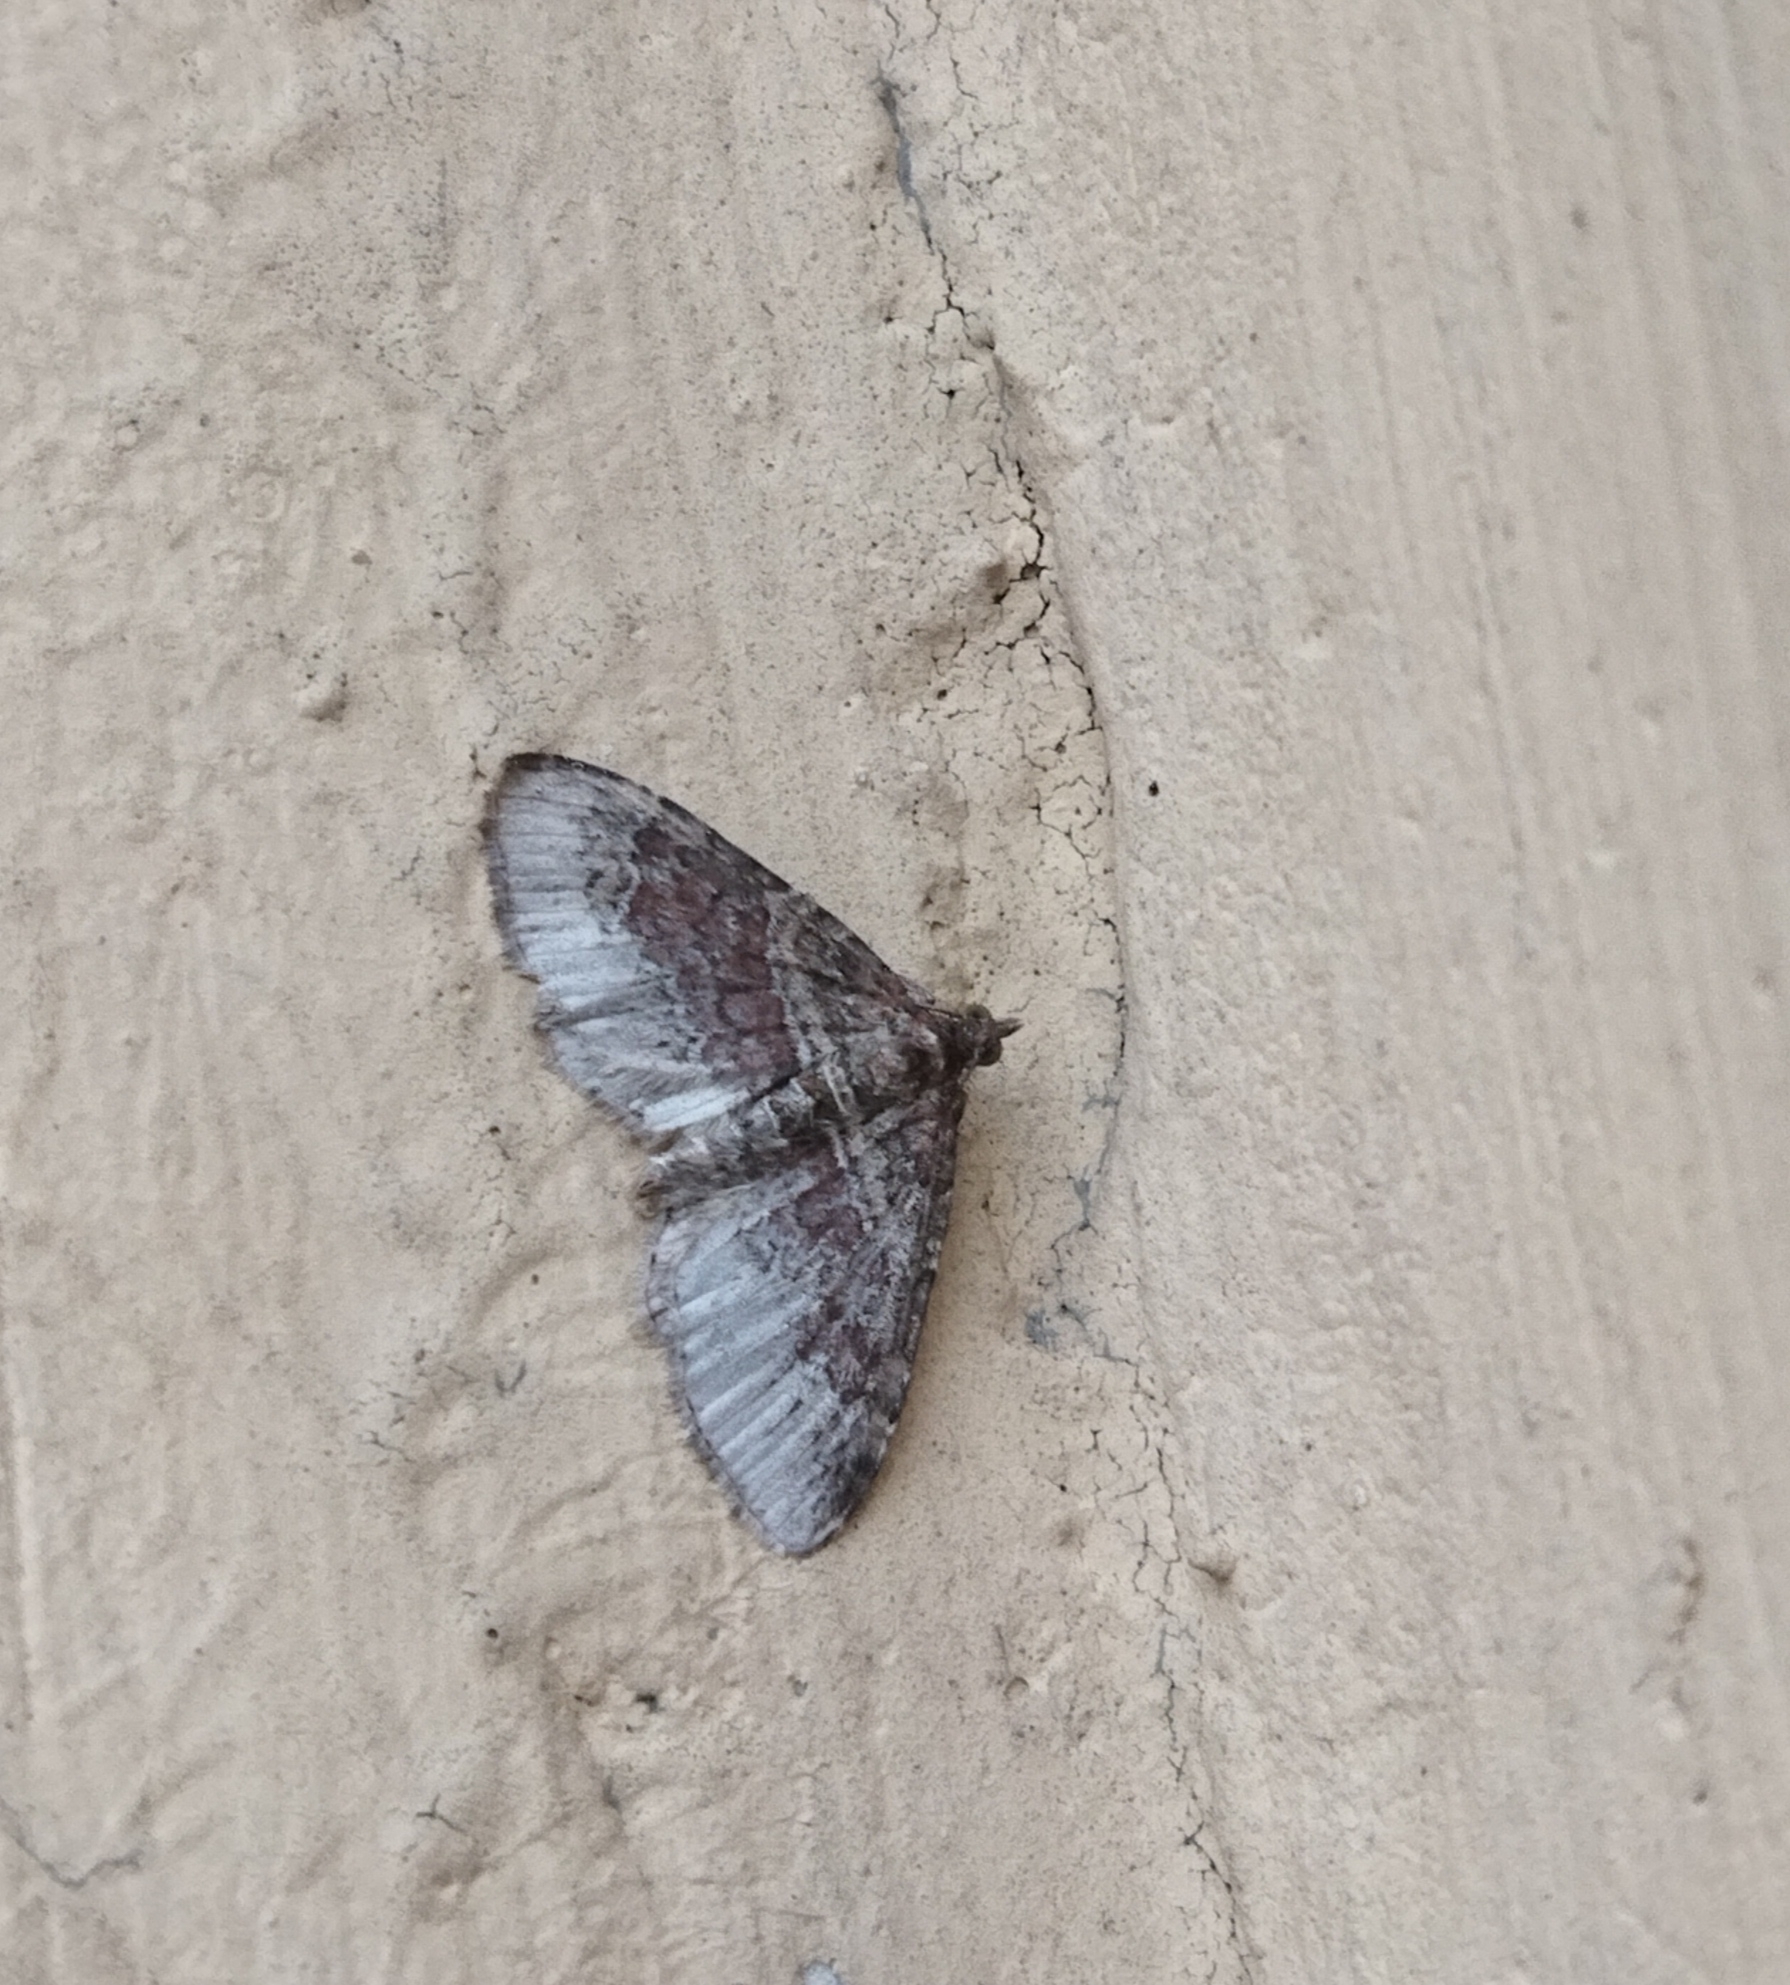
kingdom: Animalia
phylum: Arthropoda
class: Insecta
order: Lepidoptera
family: Geometridae
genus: Xanthorhoe
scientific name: Xanthorhoe ferrugata
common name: Dark-barred twin-spot carpet
